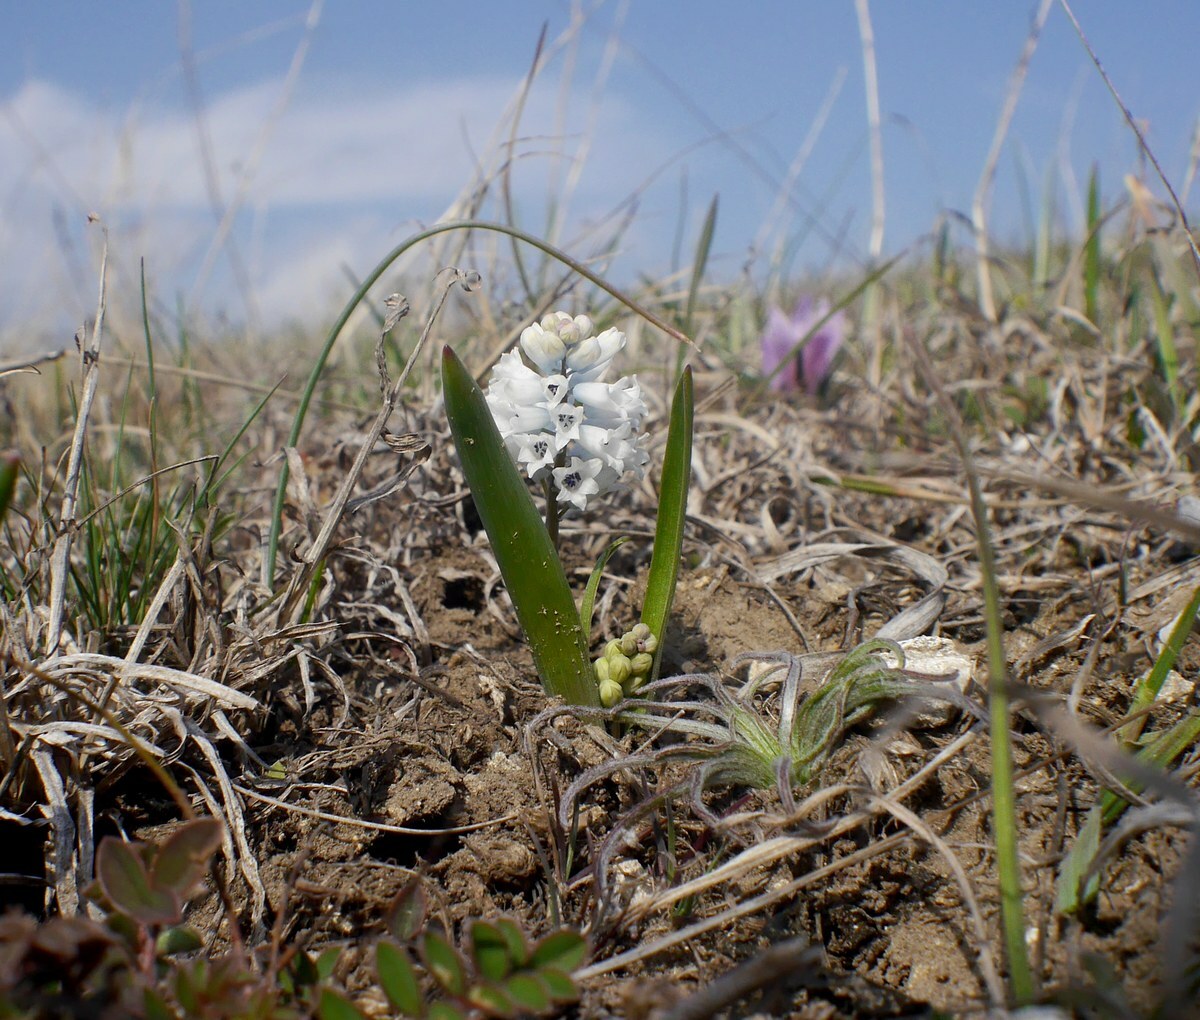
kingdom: Plantae
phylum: Tracheophyta
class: Liliopsida
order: Asparagales
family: Asparagaceae
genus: Hyacinthella
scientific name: Hyacinthella leucophaea
